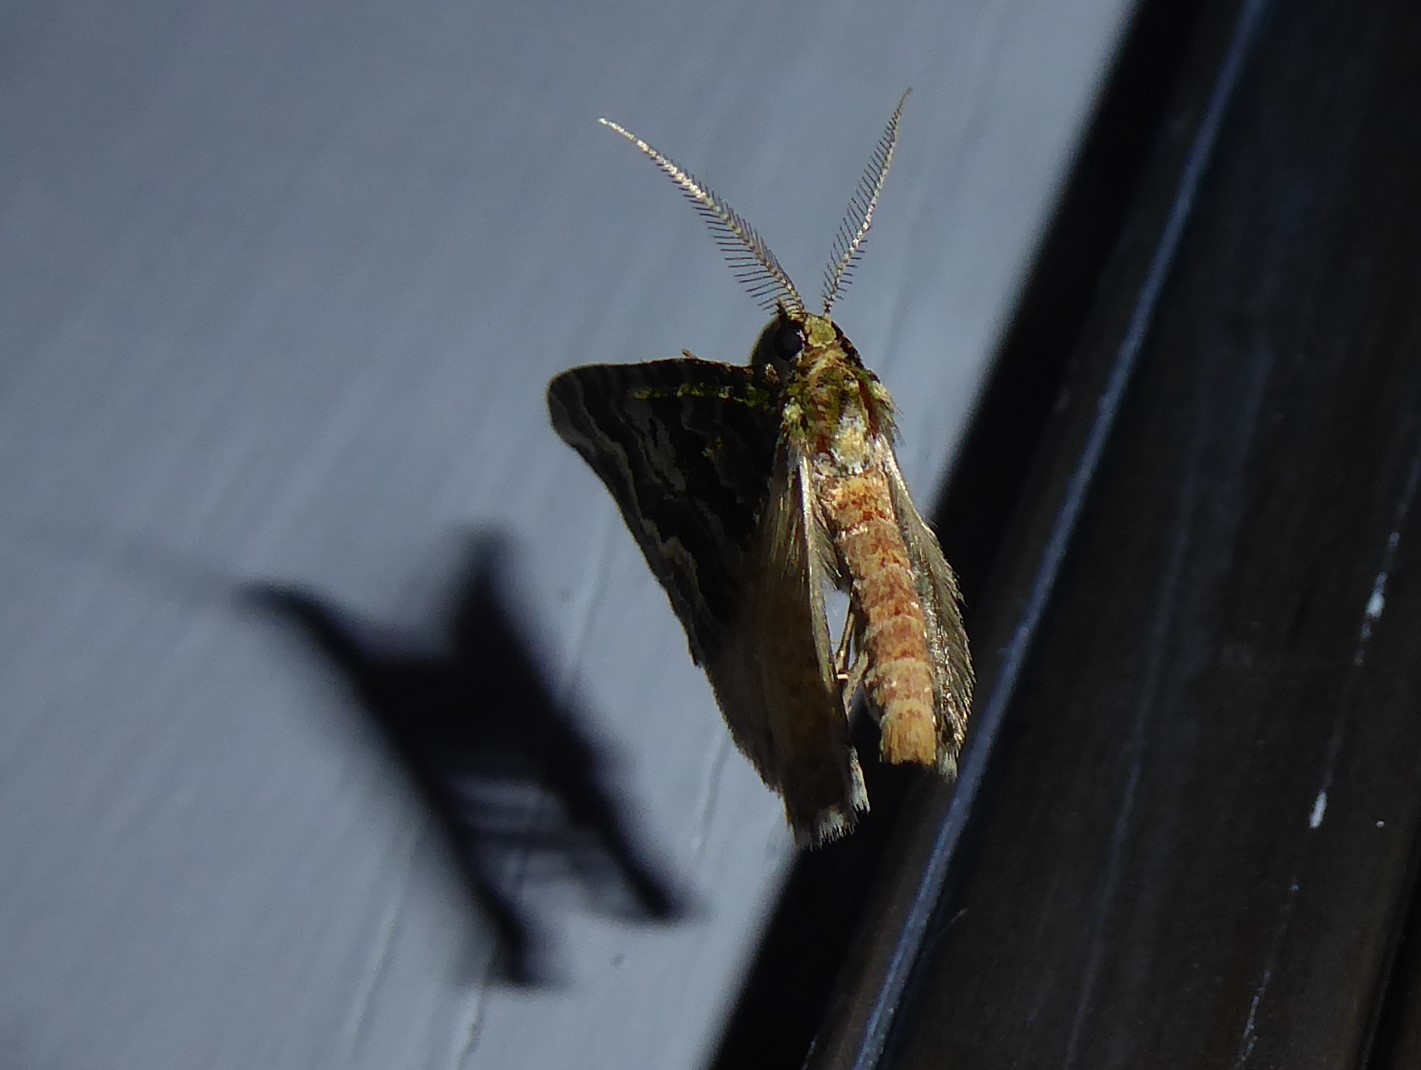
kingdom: Animalia
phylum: Arthropoda
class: Insecta
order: Lepidoptera
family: Geometridae
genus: Asaphodes
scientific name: Asaphodes beata
